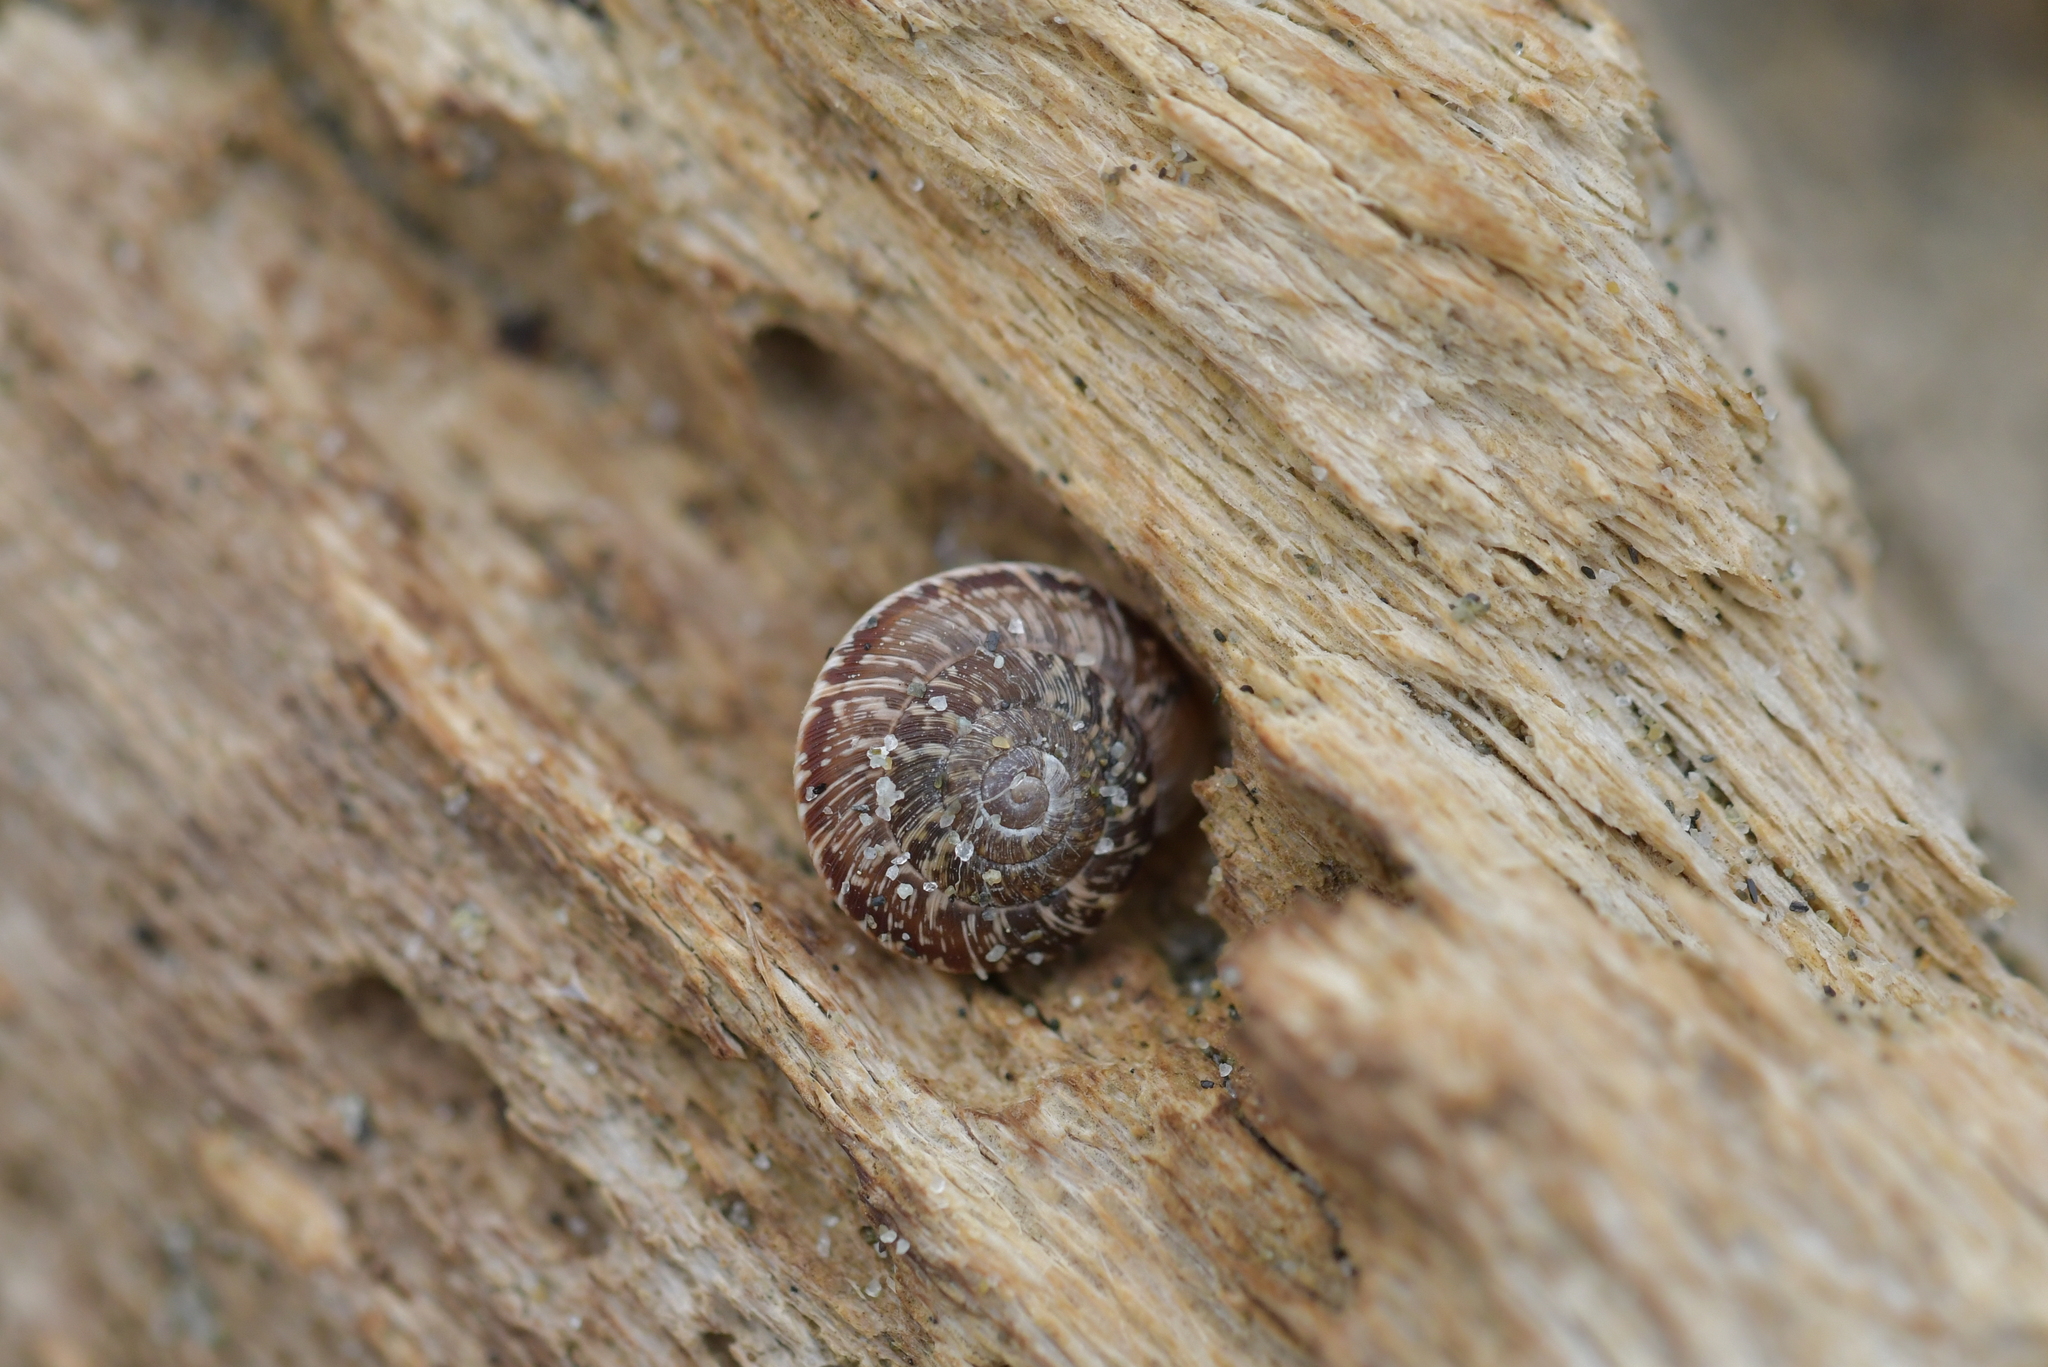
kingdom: Animalia
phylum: Mollusca
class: Gastropoda
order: Stylommatophora
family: Geomitridae
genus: Xeroplexa
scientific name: Xeroplexa intersecta
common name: Wrinkled snail
